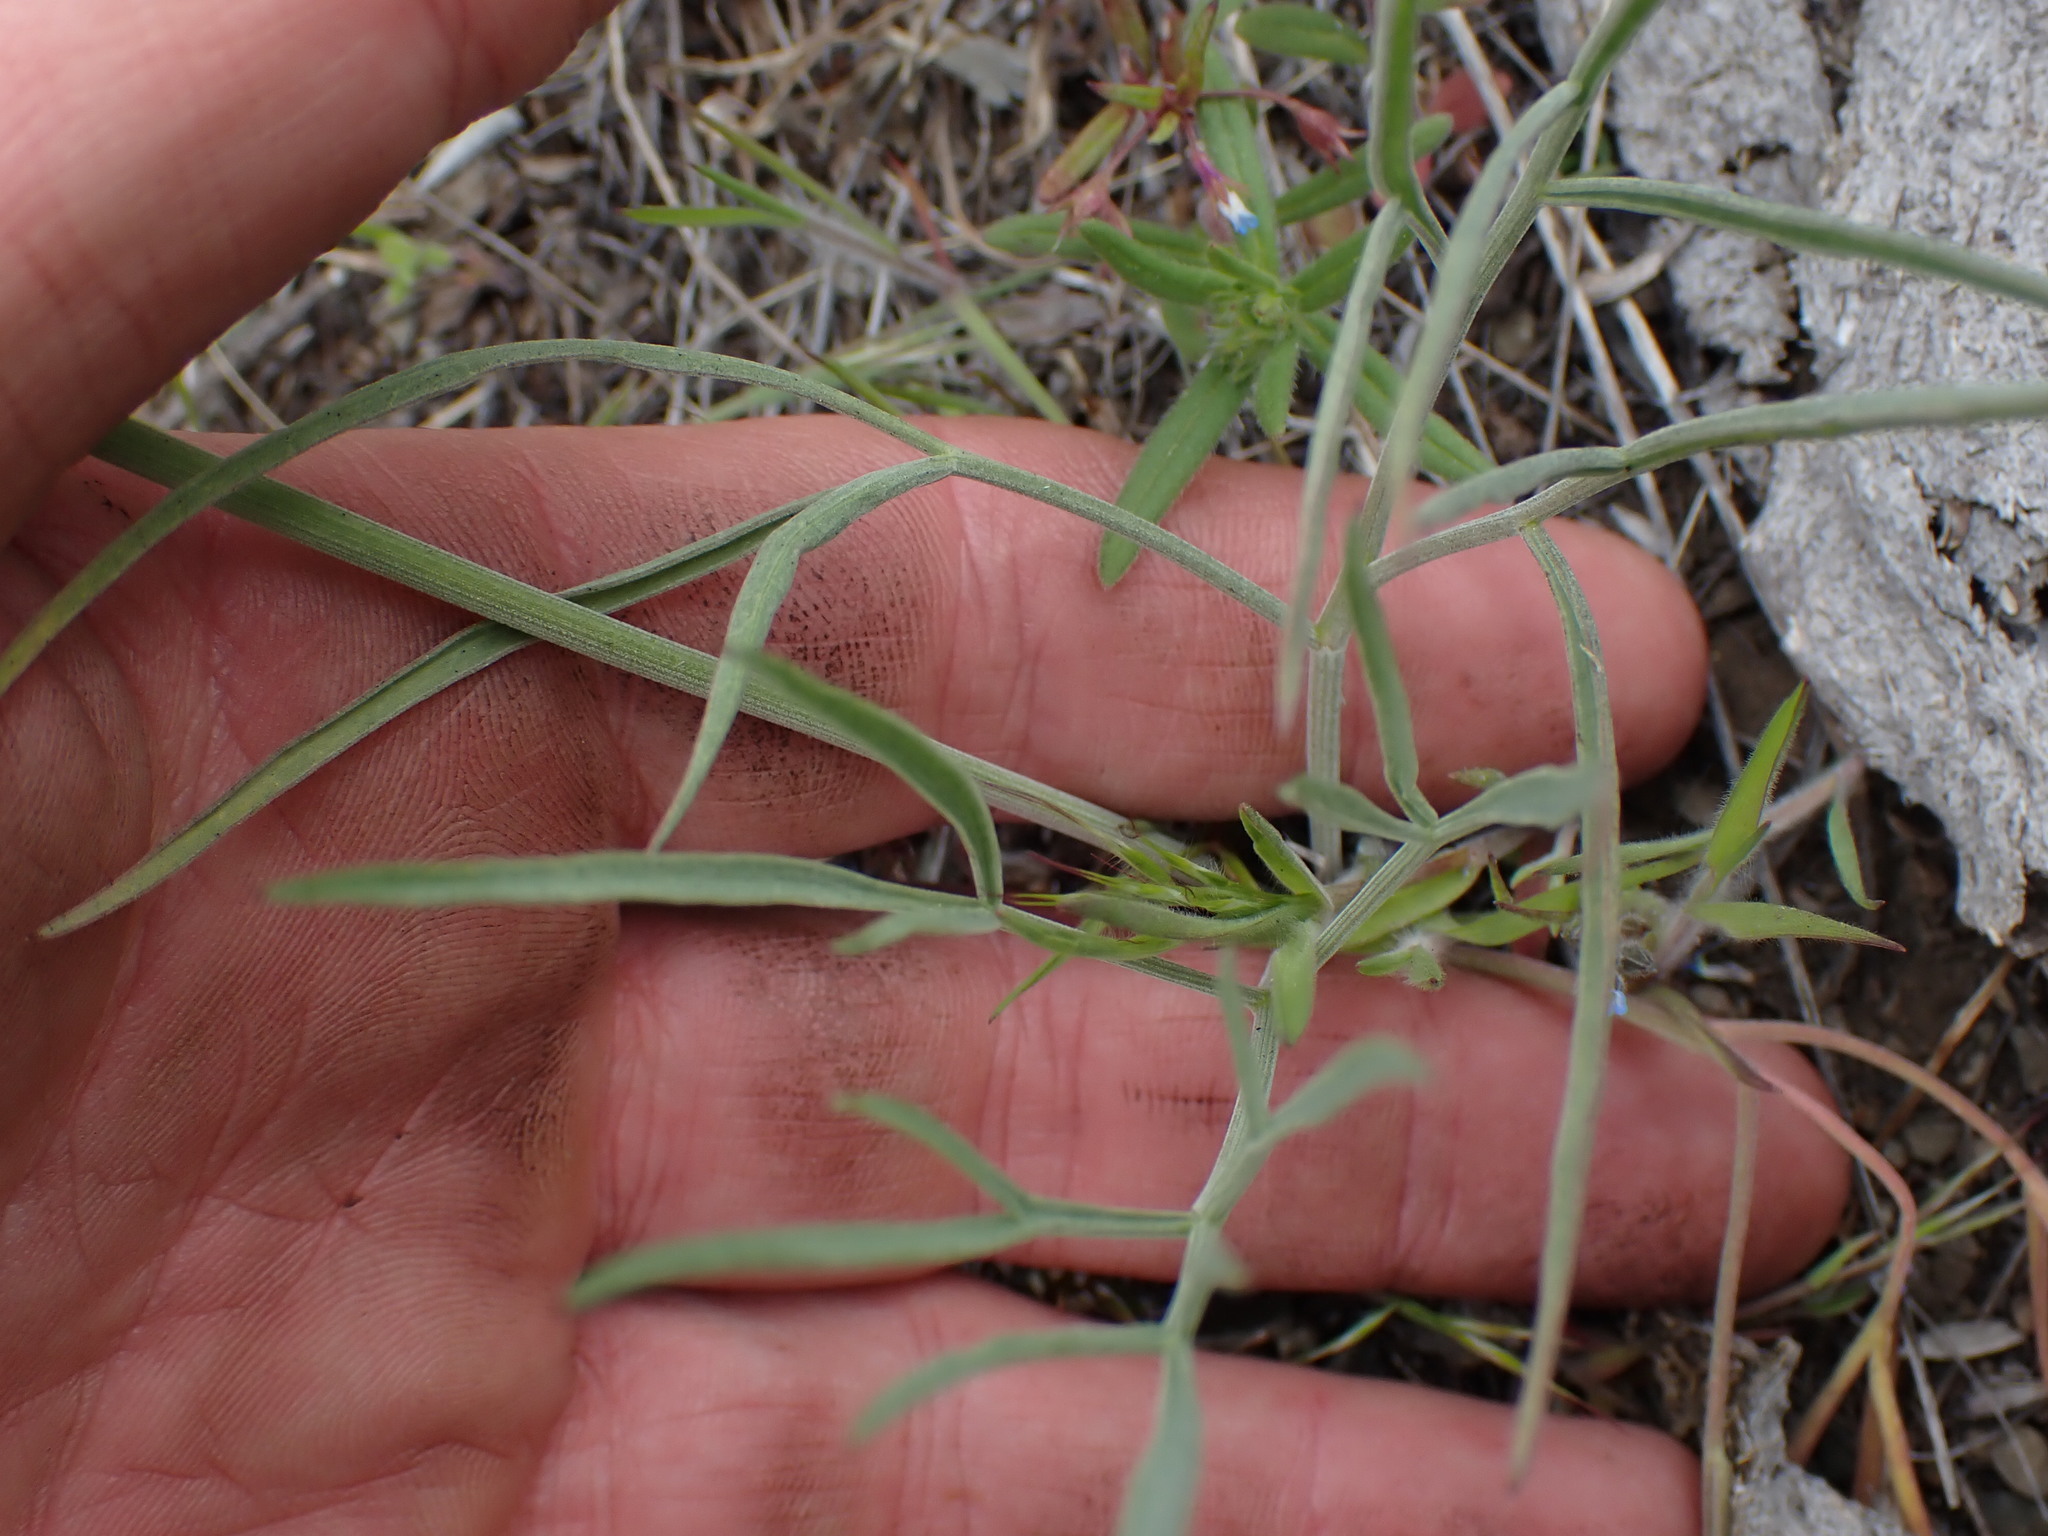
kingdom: Plantae
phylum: Tracheophyta
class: Magnoliopsida
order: Apiales
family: Apiaceae
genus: Lomatium
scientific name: Lomatium triternatum
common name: Ternate lomatium
